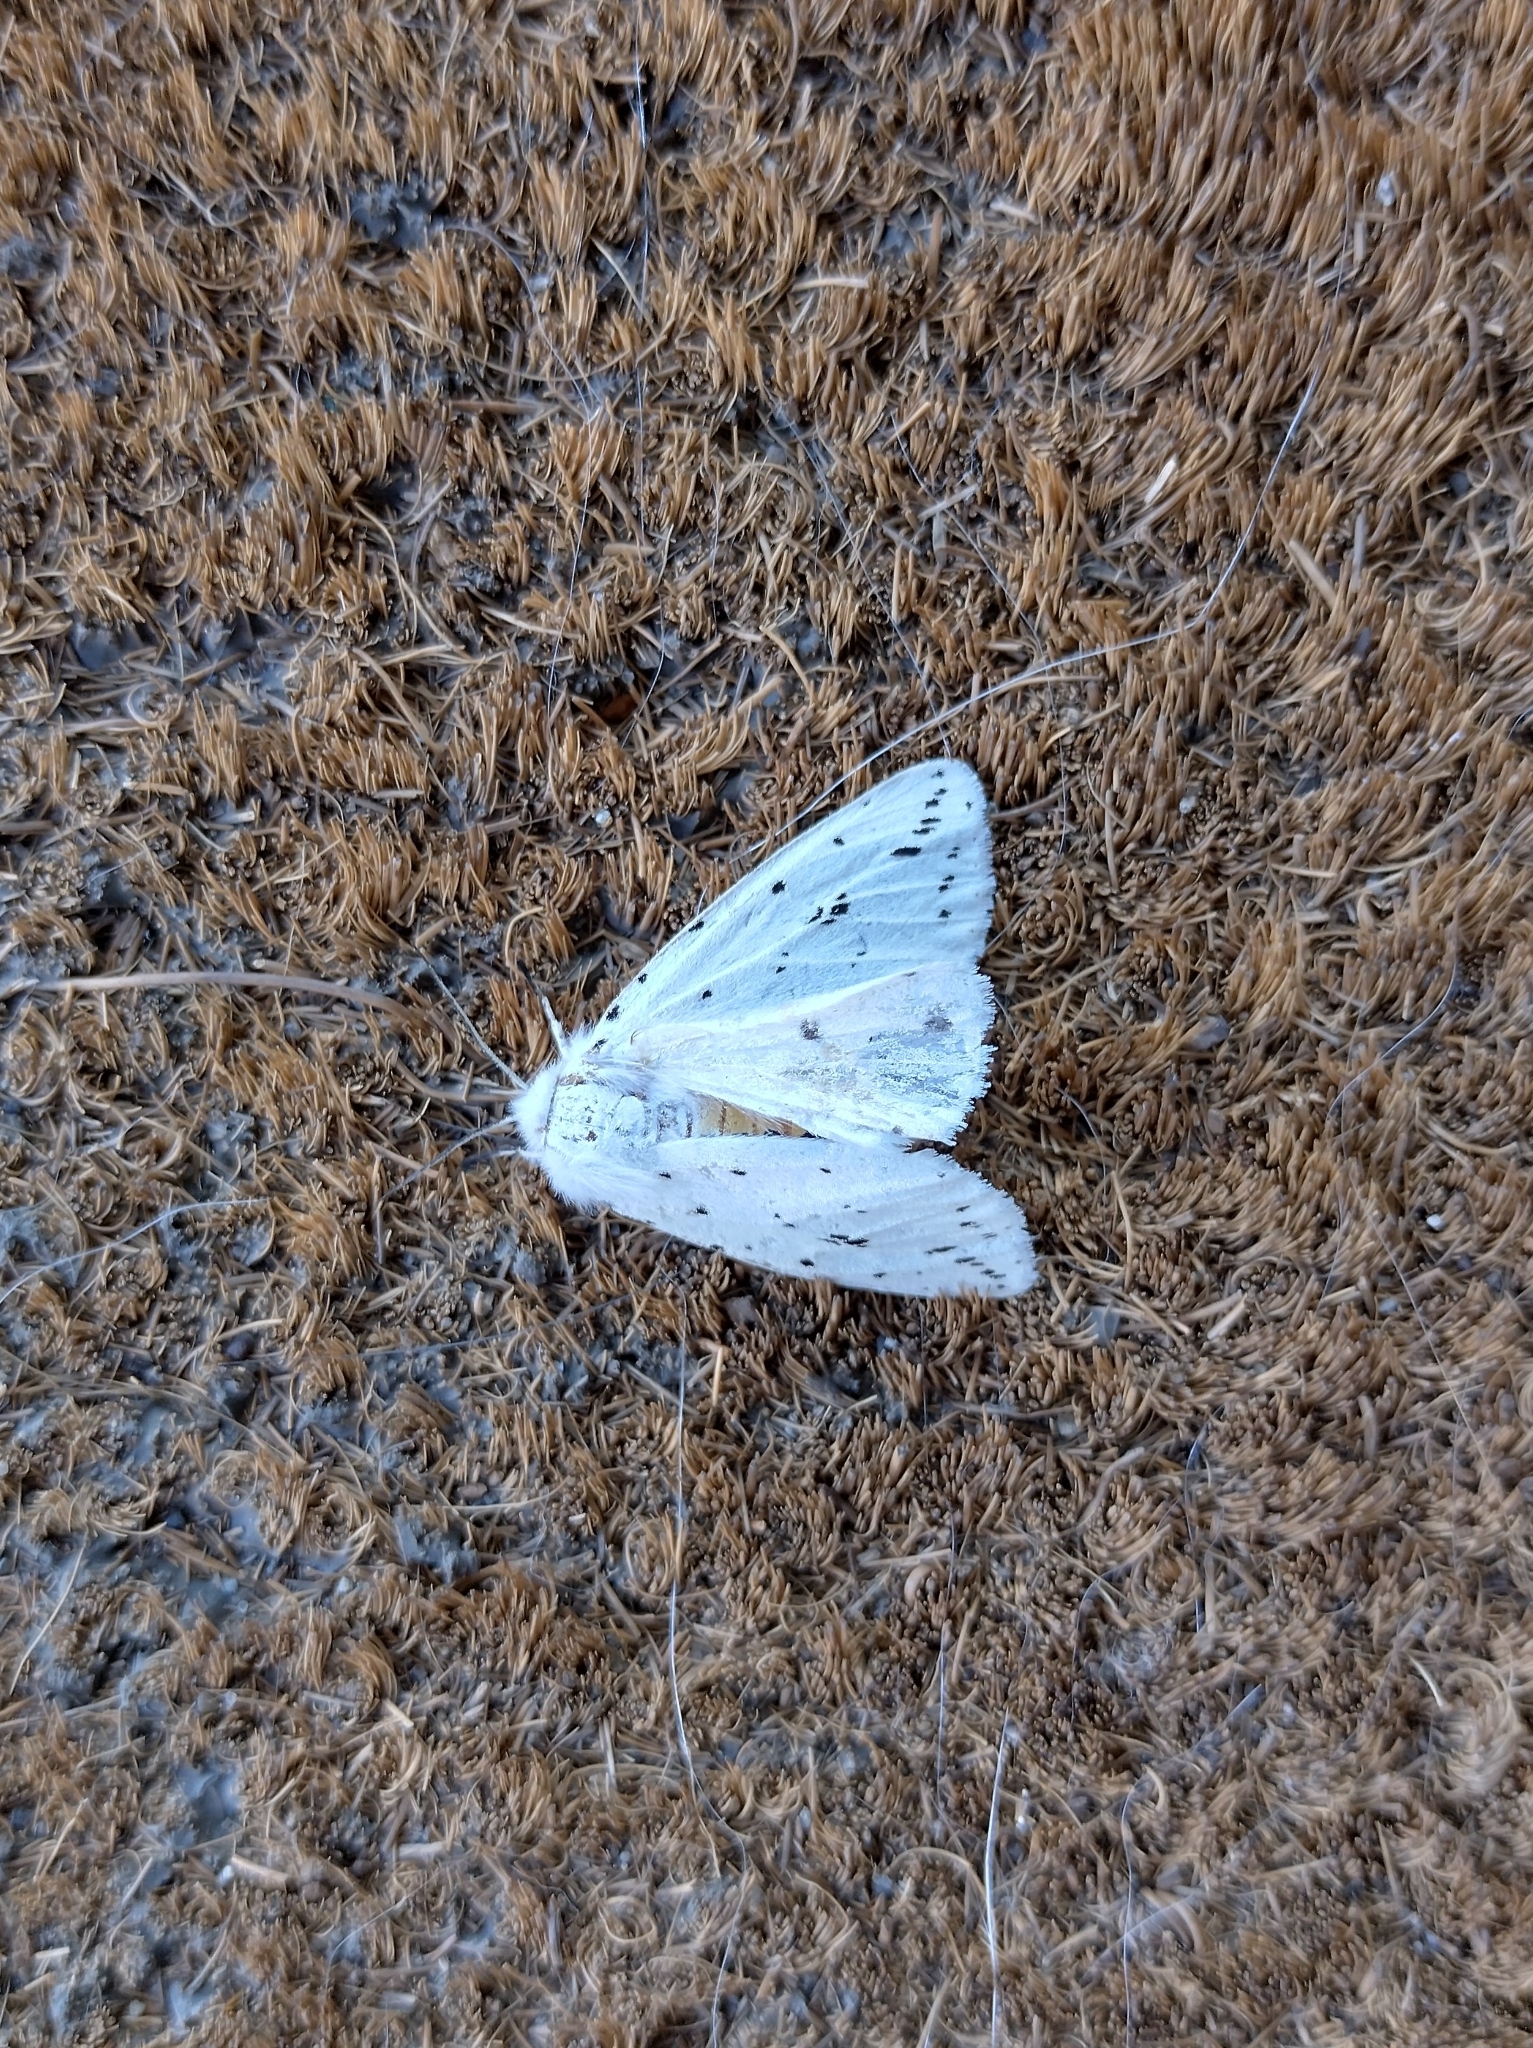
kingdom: Animalia
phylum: Arthropoda
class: Insecta
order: Lepidoptera
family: Erebidae
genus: Spilosoma
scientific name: Spilosoma lubricipeda
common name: White ermine
